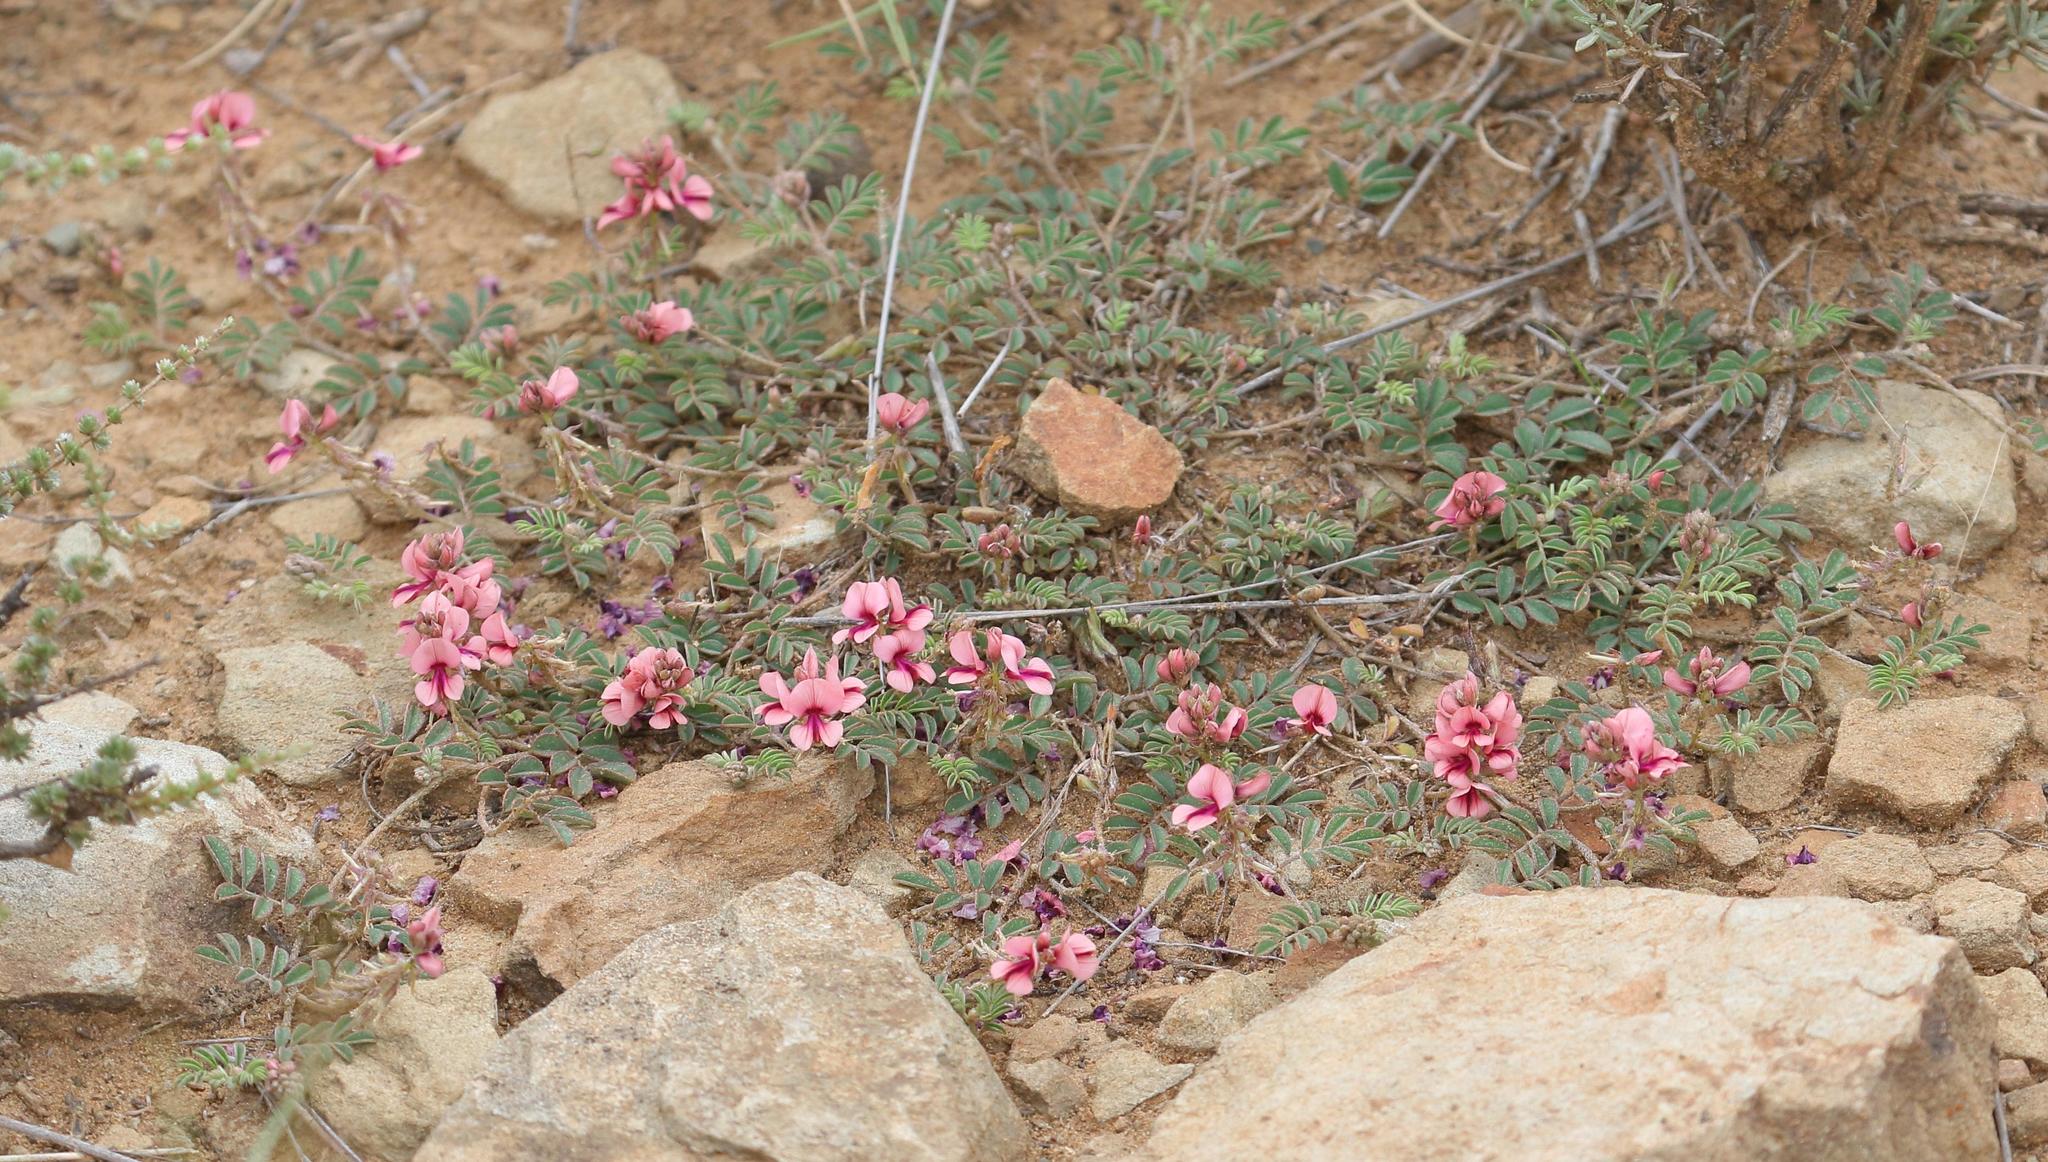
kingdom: Plantae
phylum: Tracheophyta
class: Magnoliopsida
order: Fabales
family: Fabaceae
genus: Indigofera
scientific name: Indigofera alternans
